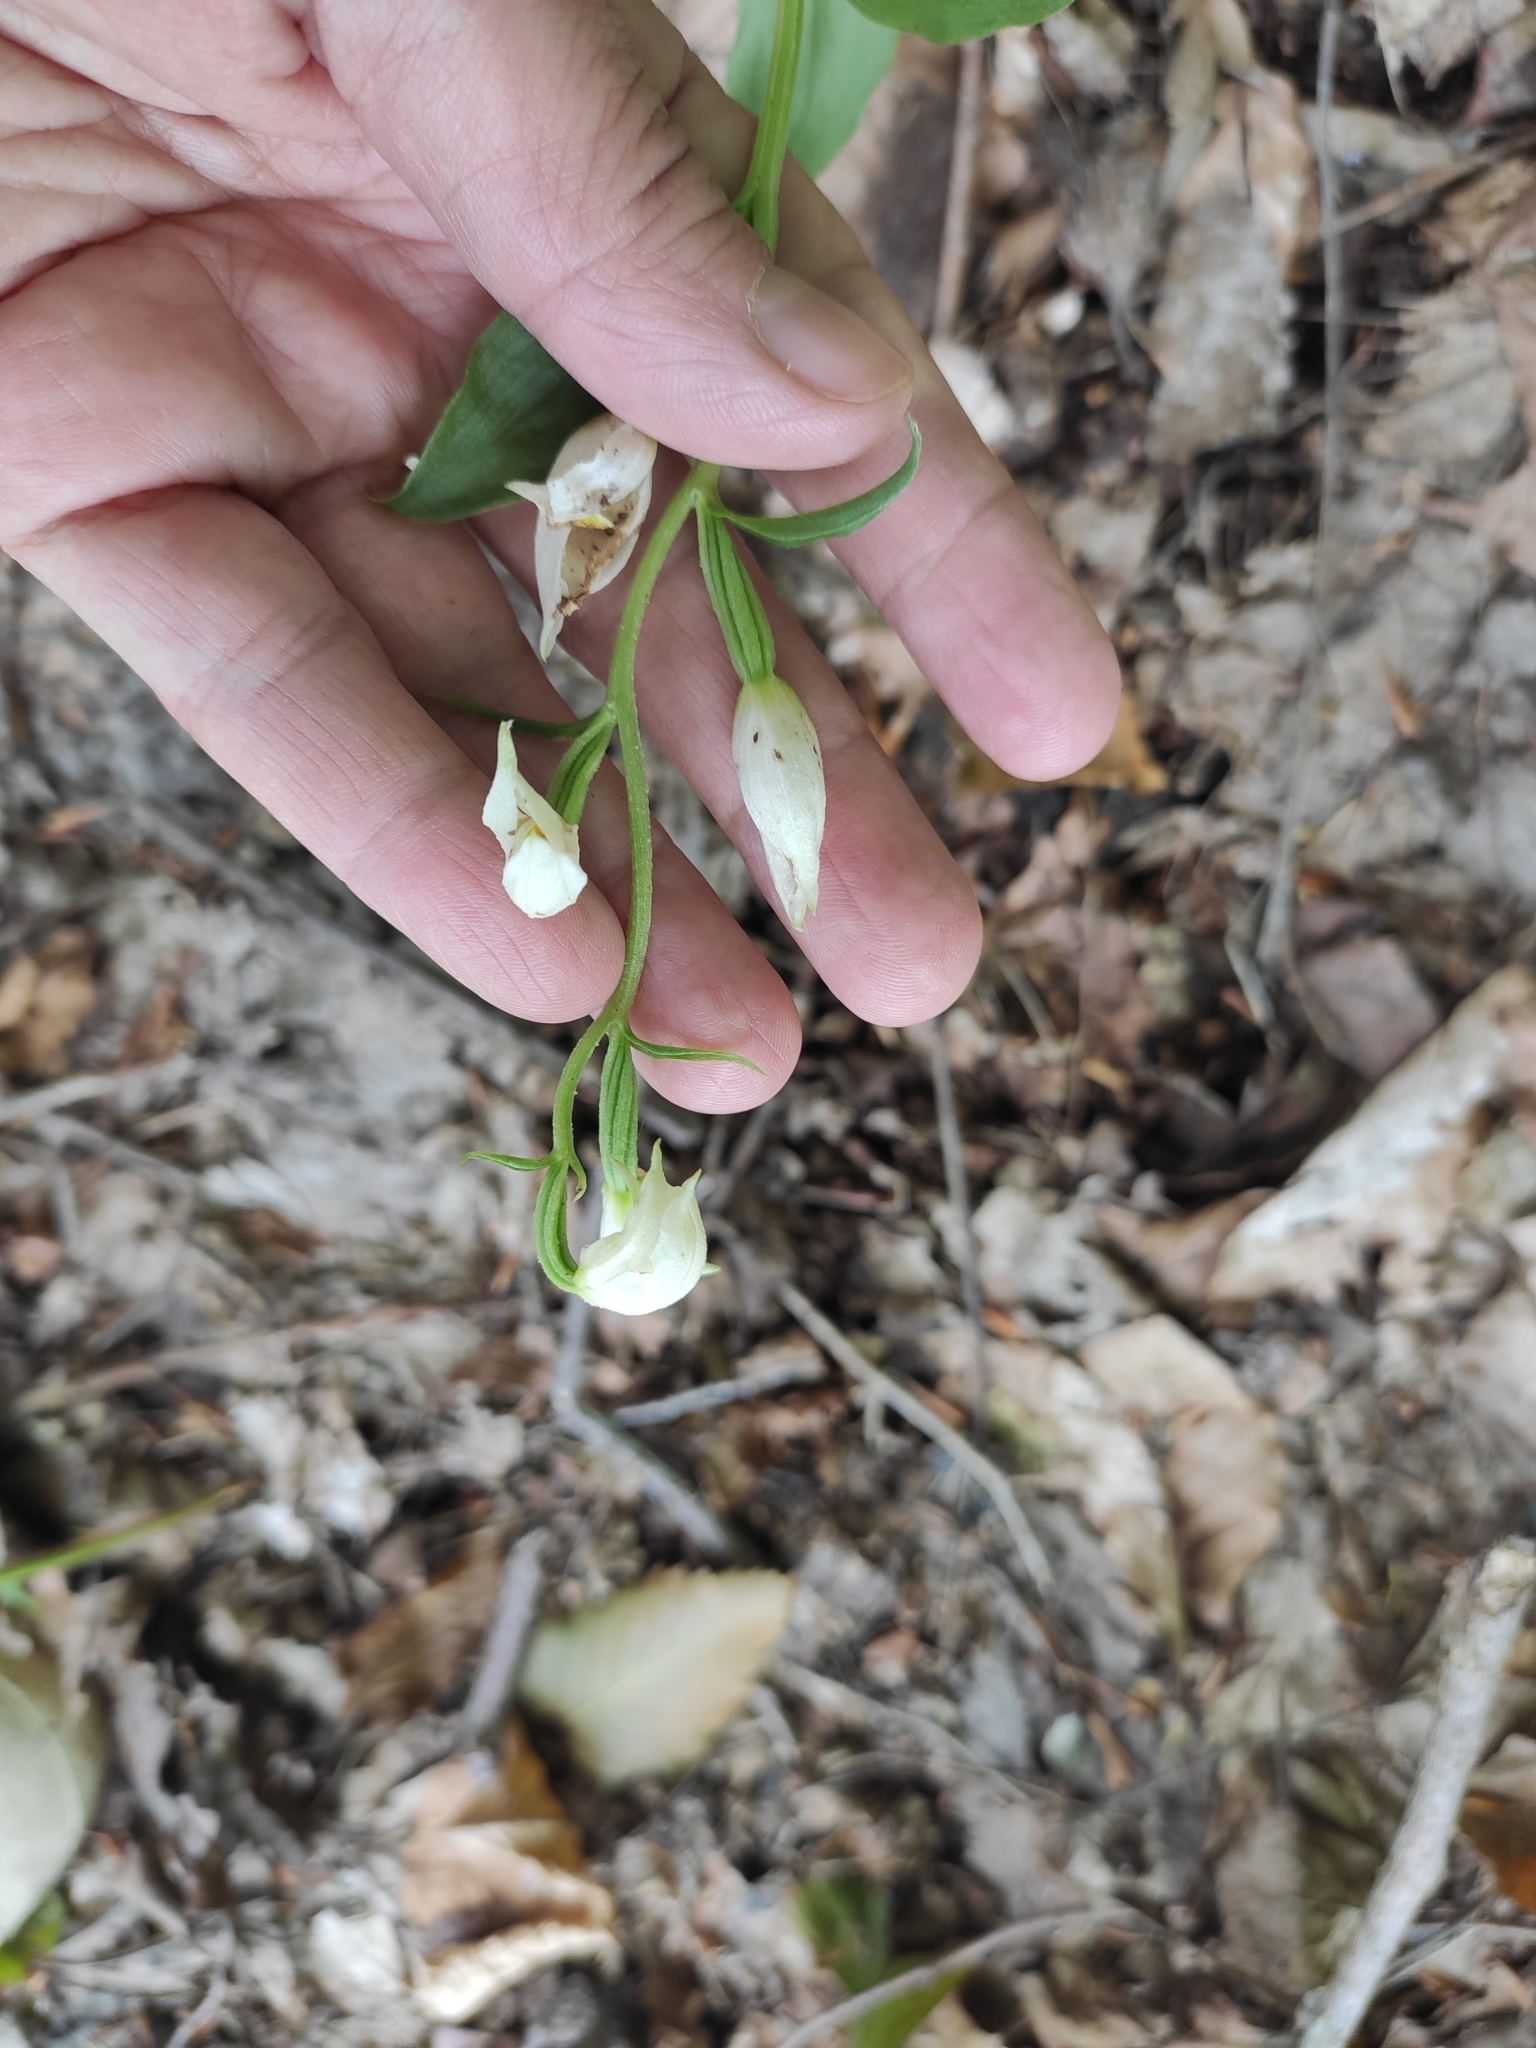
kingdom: Plantae
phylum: Tracheophyta
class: Liliopsida
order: Asparagales
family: Orchidaceae
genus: Cephalanthera
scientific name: Cephalanthera damasonium
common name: White helleborine
